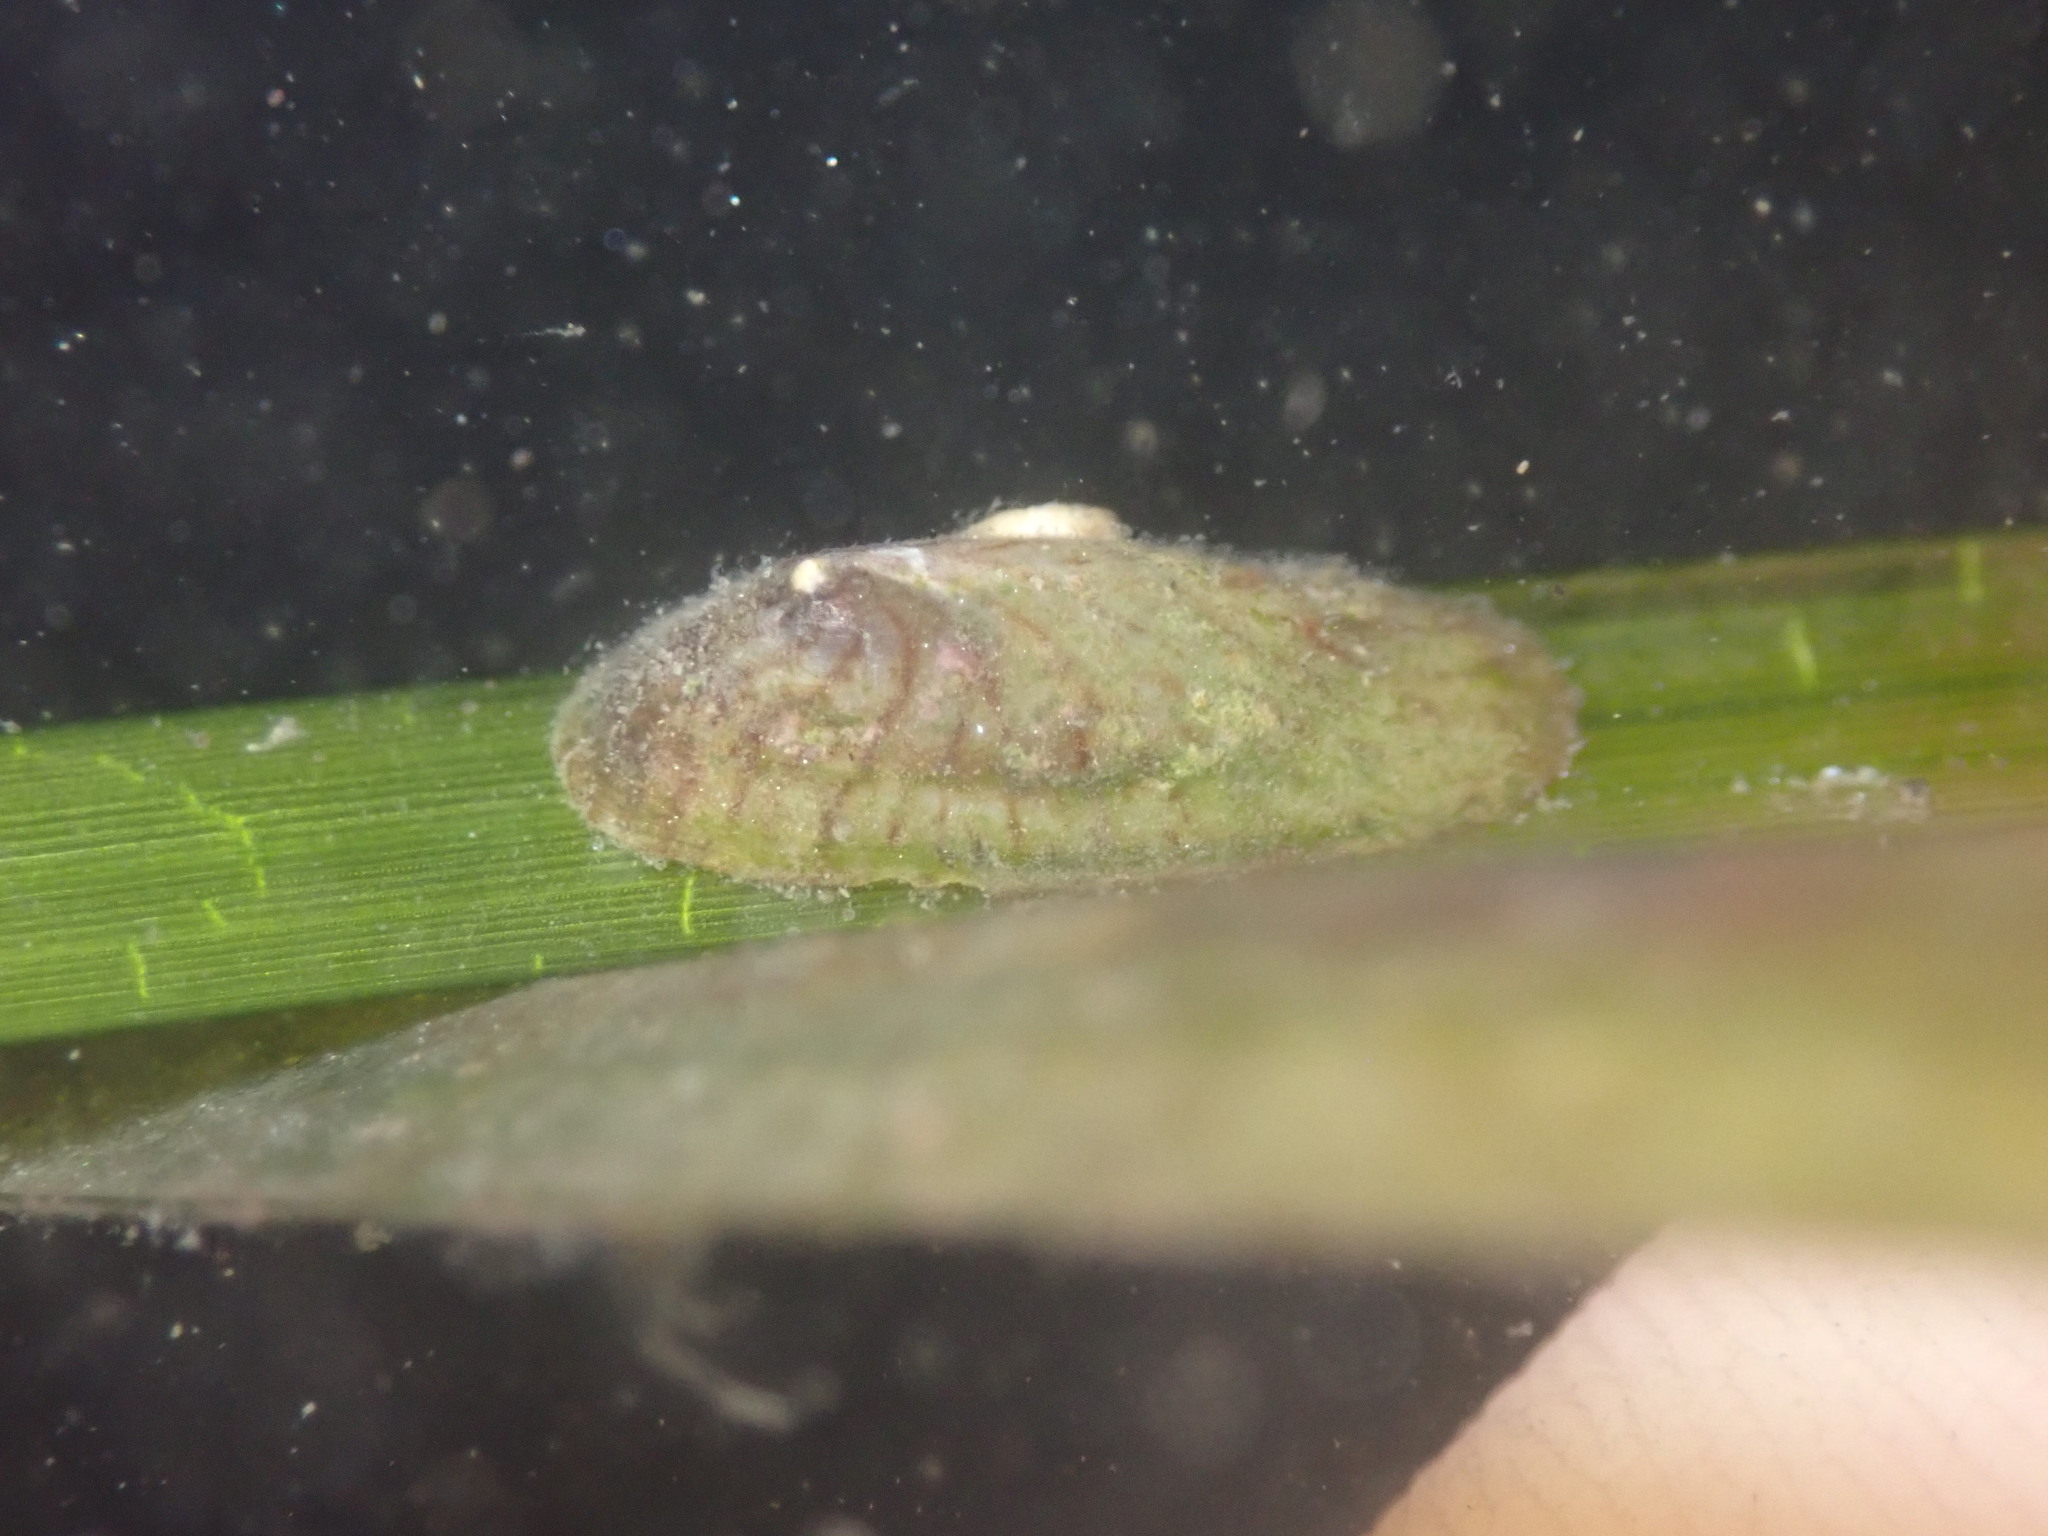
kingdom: Animalia
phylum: Mollusca
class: Gastropoda
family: Lottiidae
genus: Tectura
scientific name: Tectura paleacea
